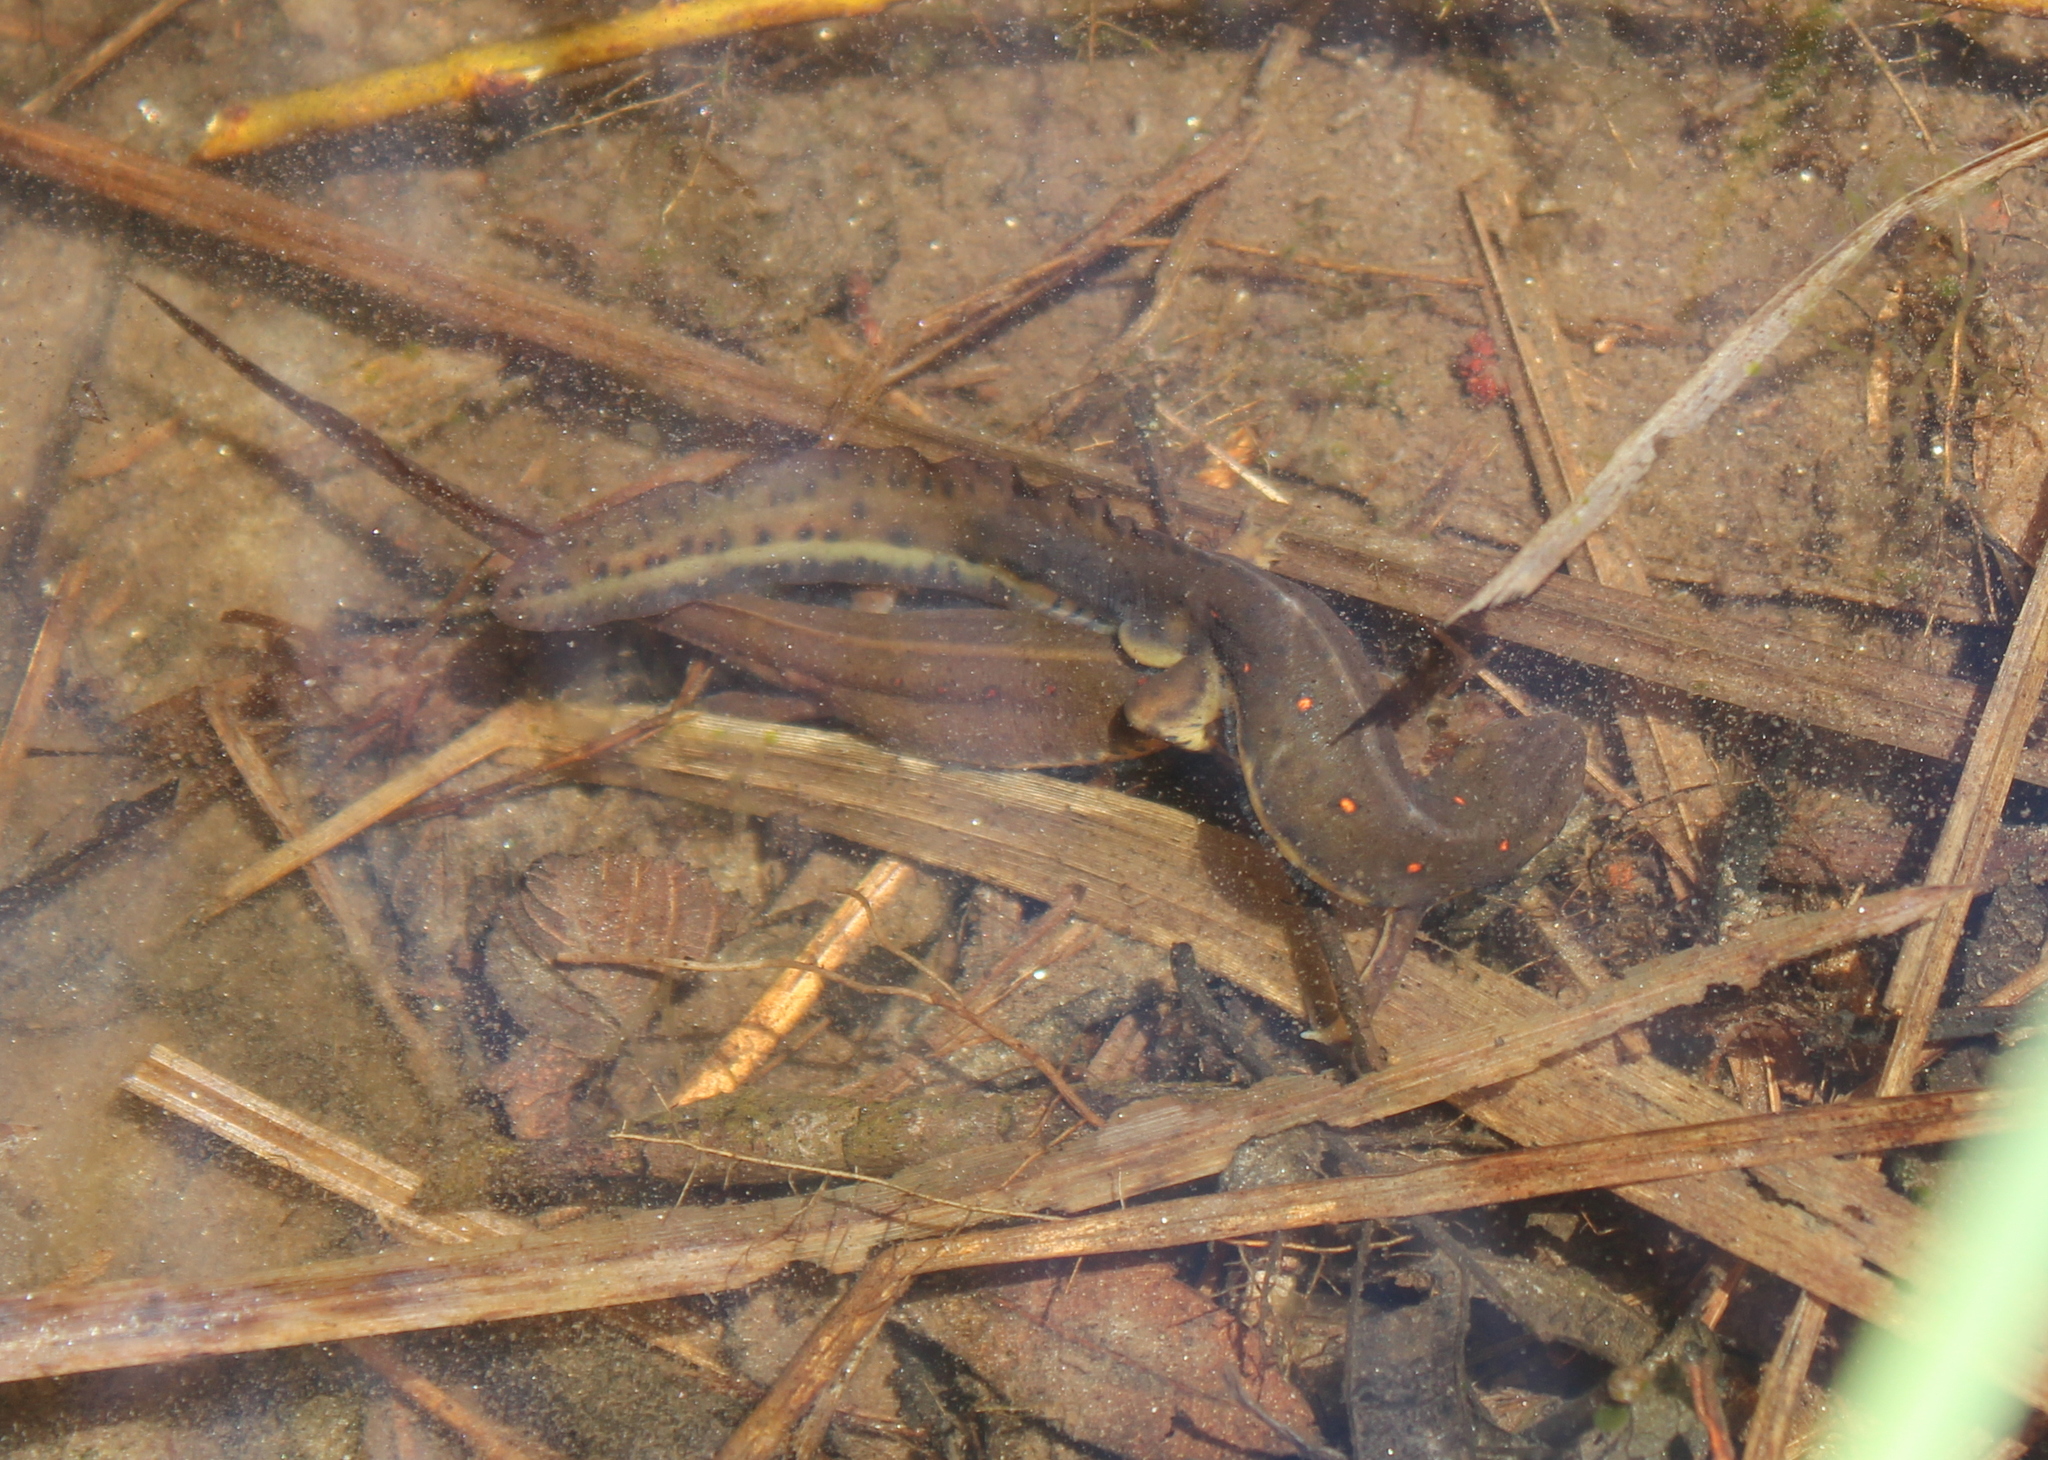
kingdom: Animalia
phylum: Chordata
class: Amphibia
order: Caudata
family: Salamandridae
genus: Notophthalmus
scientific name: Notophthalmus viridescens
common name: Eastern newt
